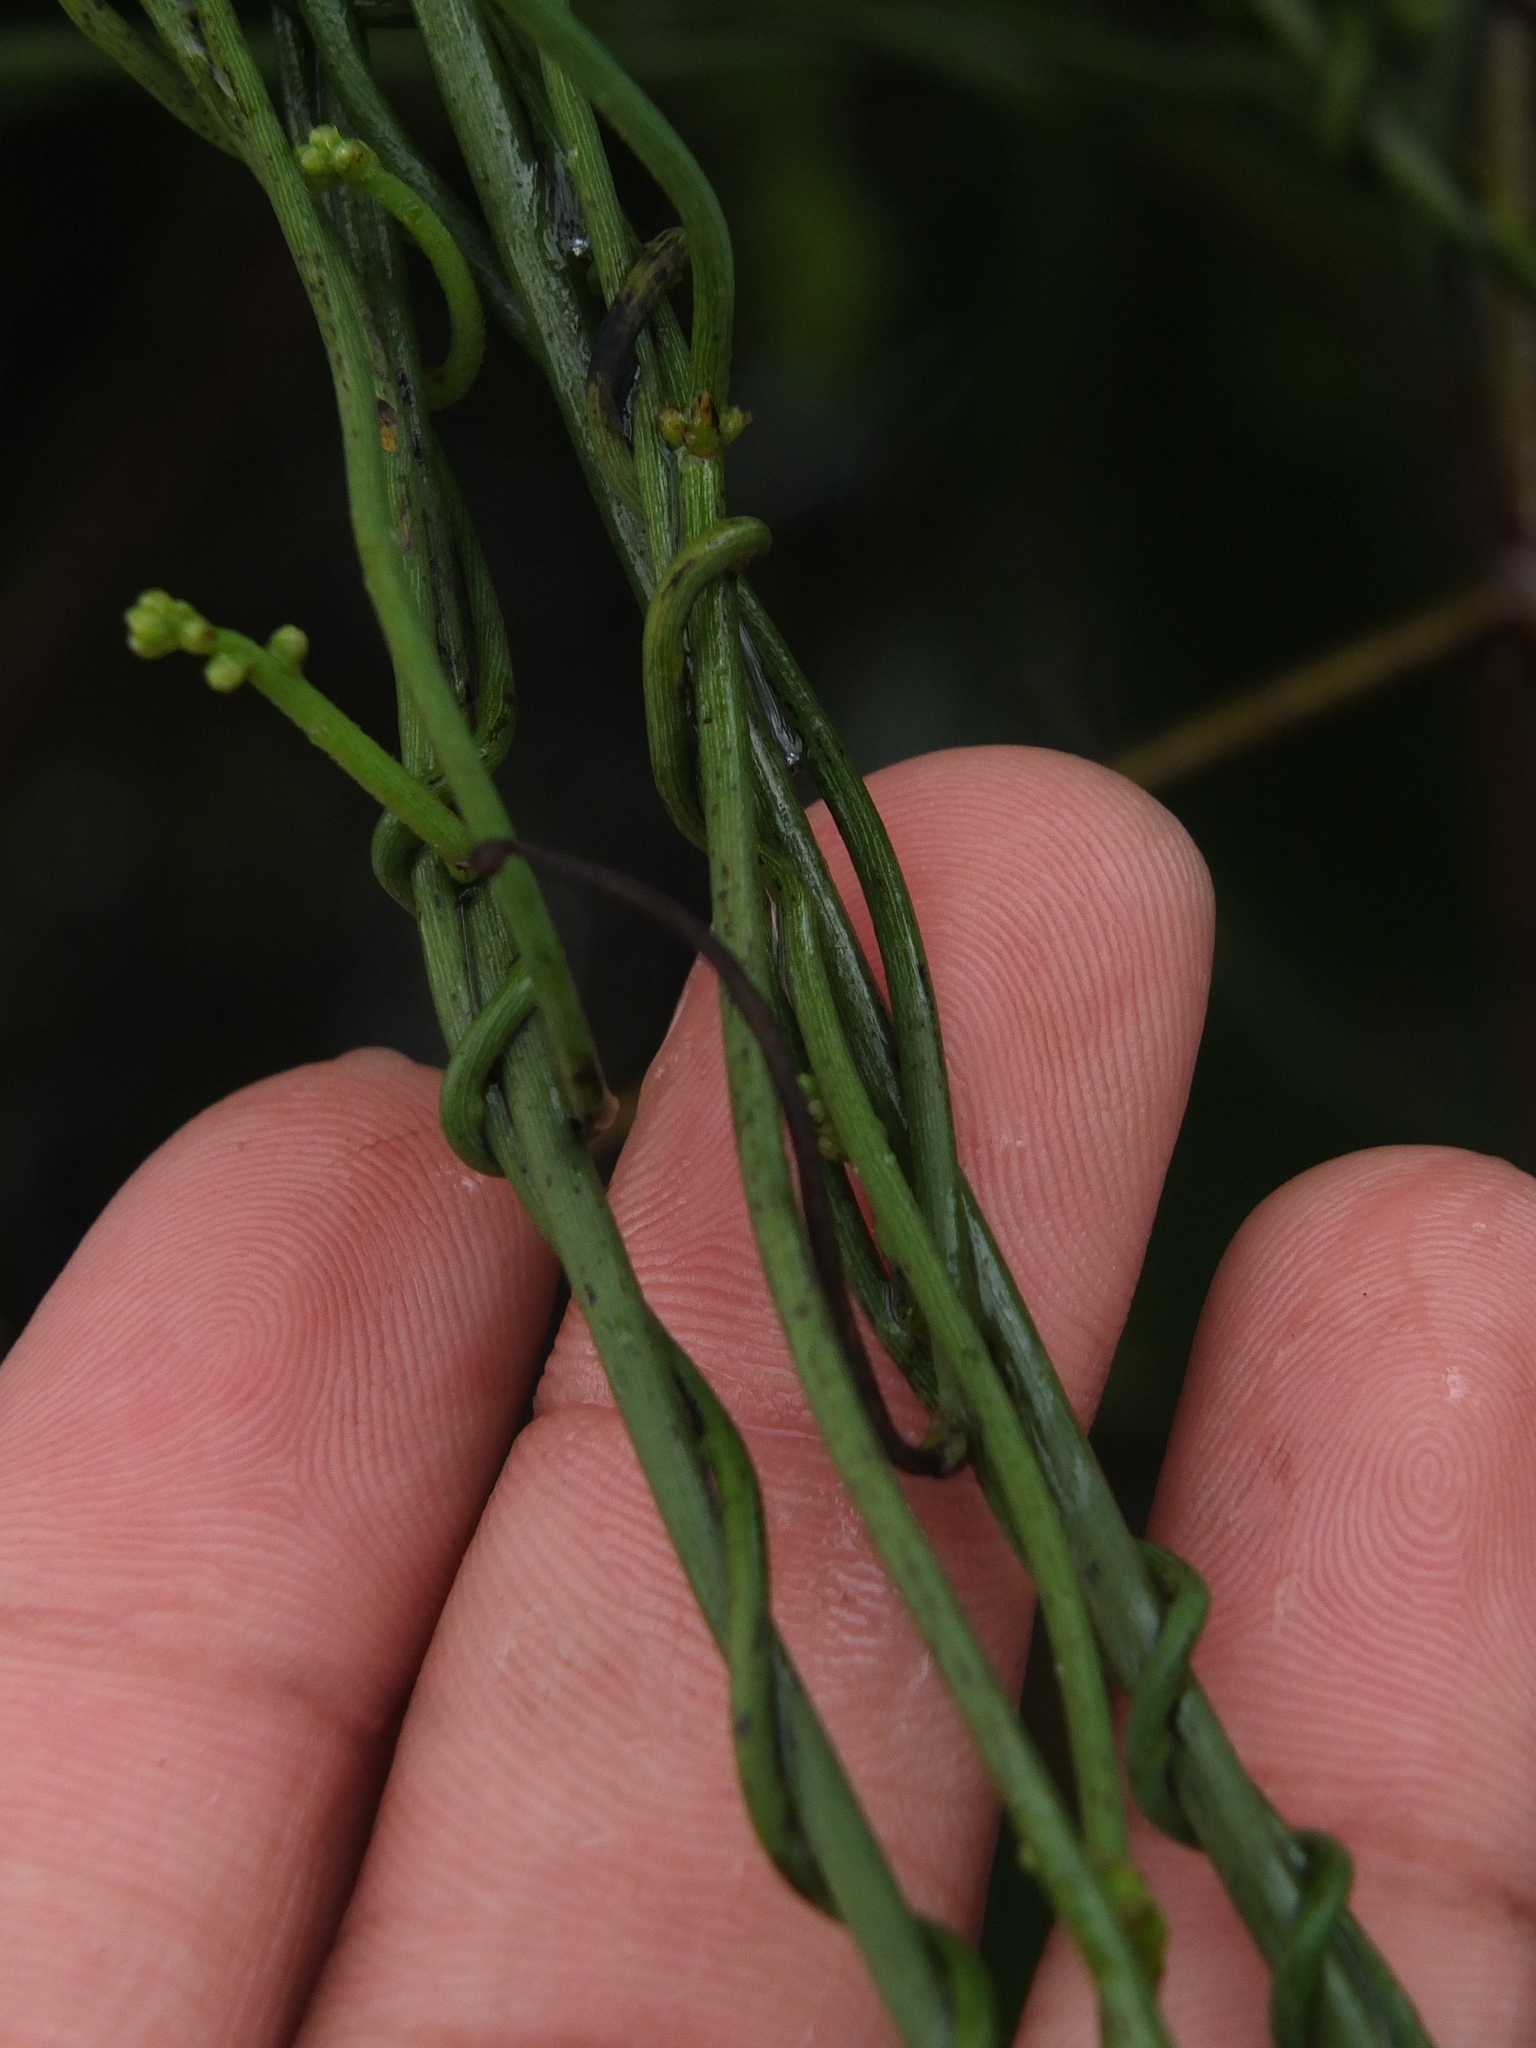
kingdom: Plantae
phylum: Tracheophyta
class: Magnoliopsida
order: Laurales
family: Lauraceae
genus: Cassytha
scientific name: Cassytha filiformis
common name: Dodder-laurel
